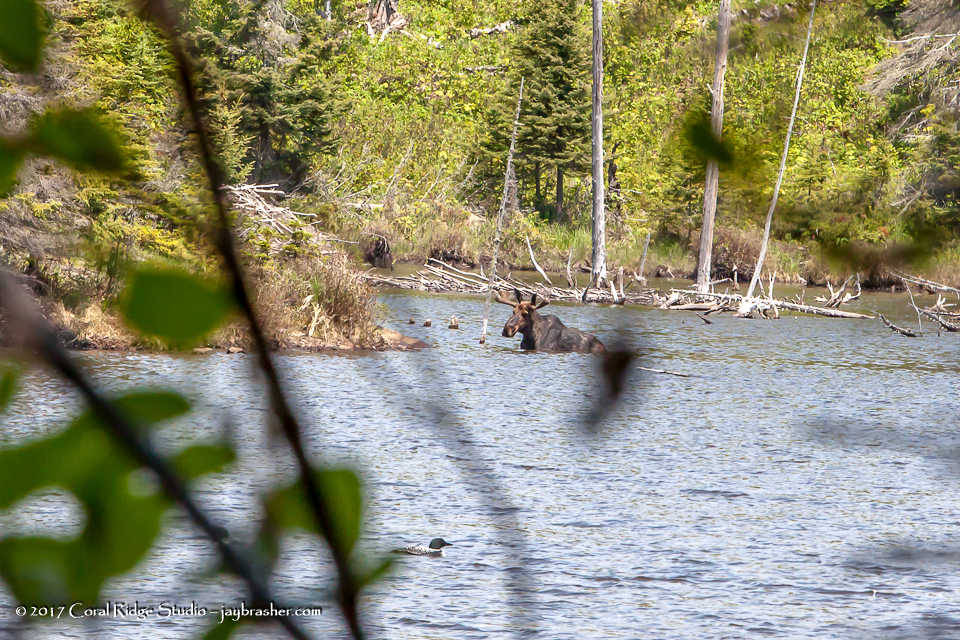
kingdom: Animalia
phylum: Chordata
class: Mammalia
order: Artiodactyla
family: Cervidae
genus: Alces
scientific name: Alces alces
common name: Moose
